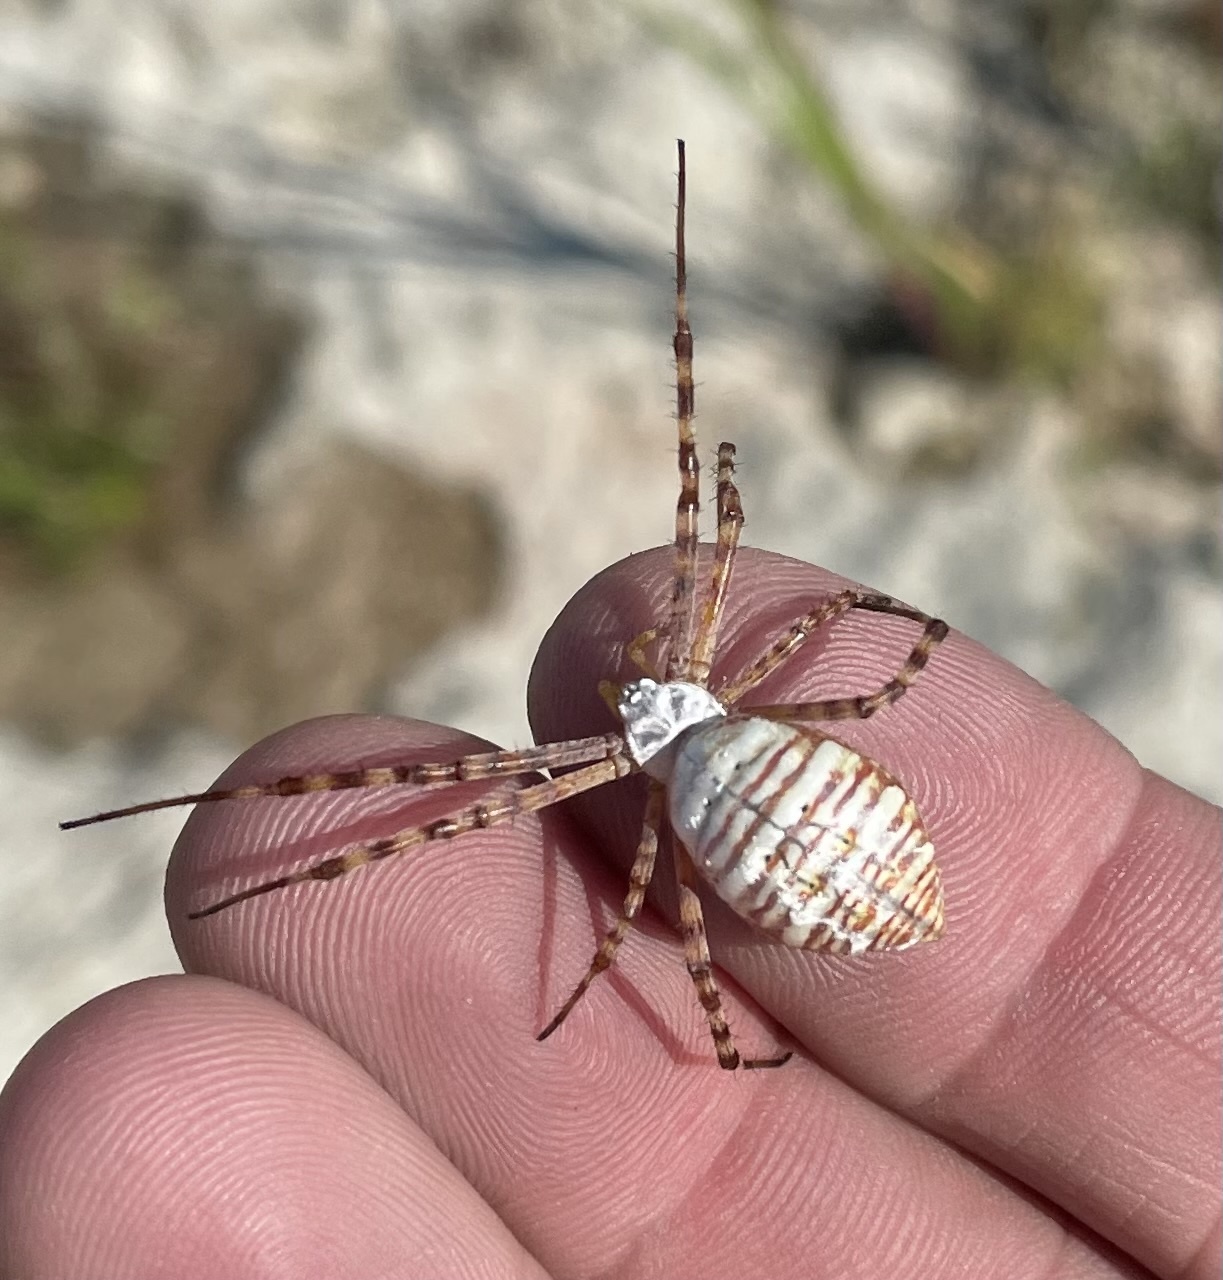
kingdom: Animalia
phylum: Arthropoda
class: Arachnida
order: Araneae
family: Araneidae
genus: Argiope
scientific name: Argiope trifasciata
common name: Banded garden spider
